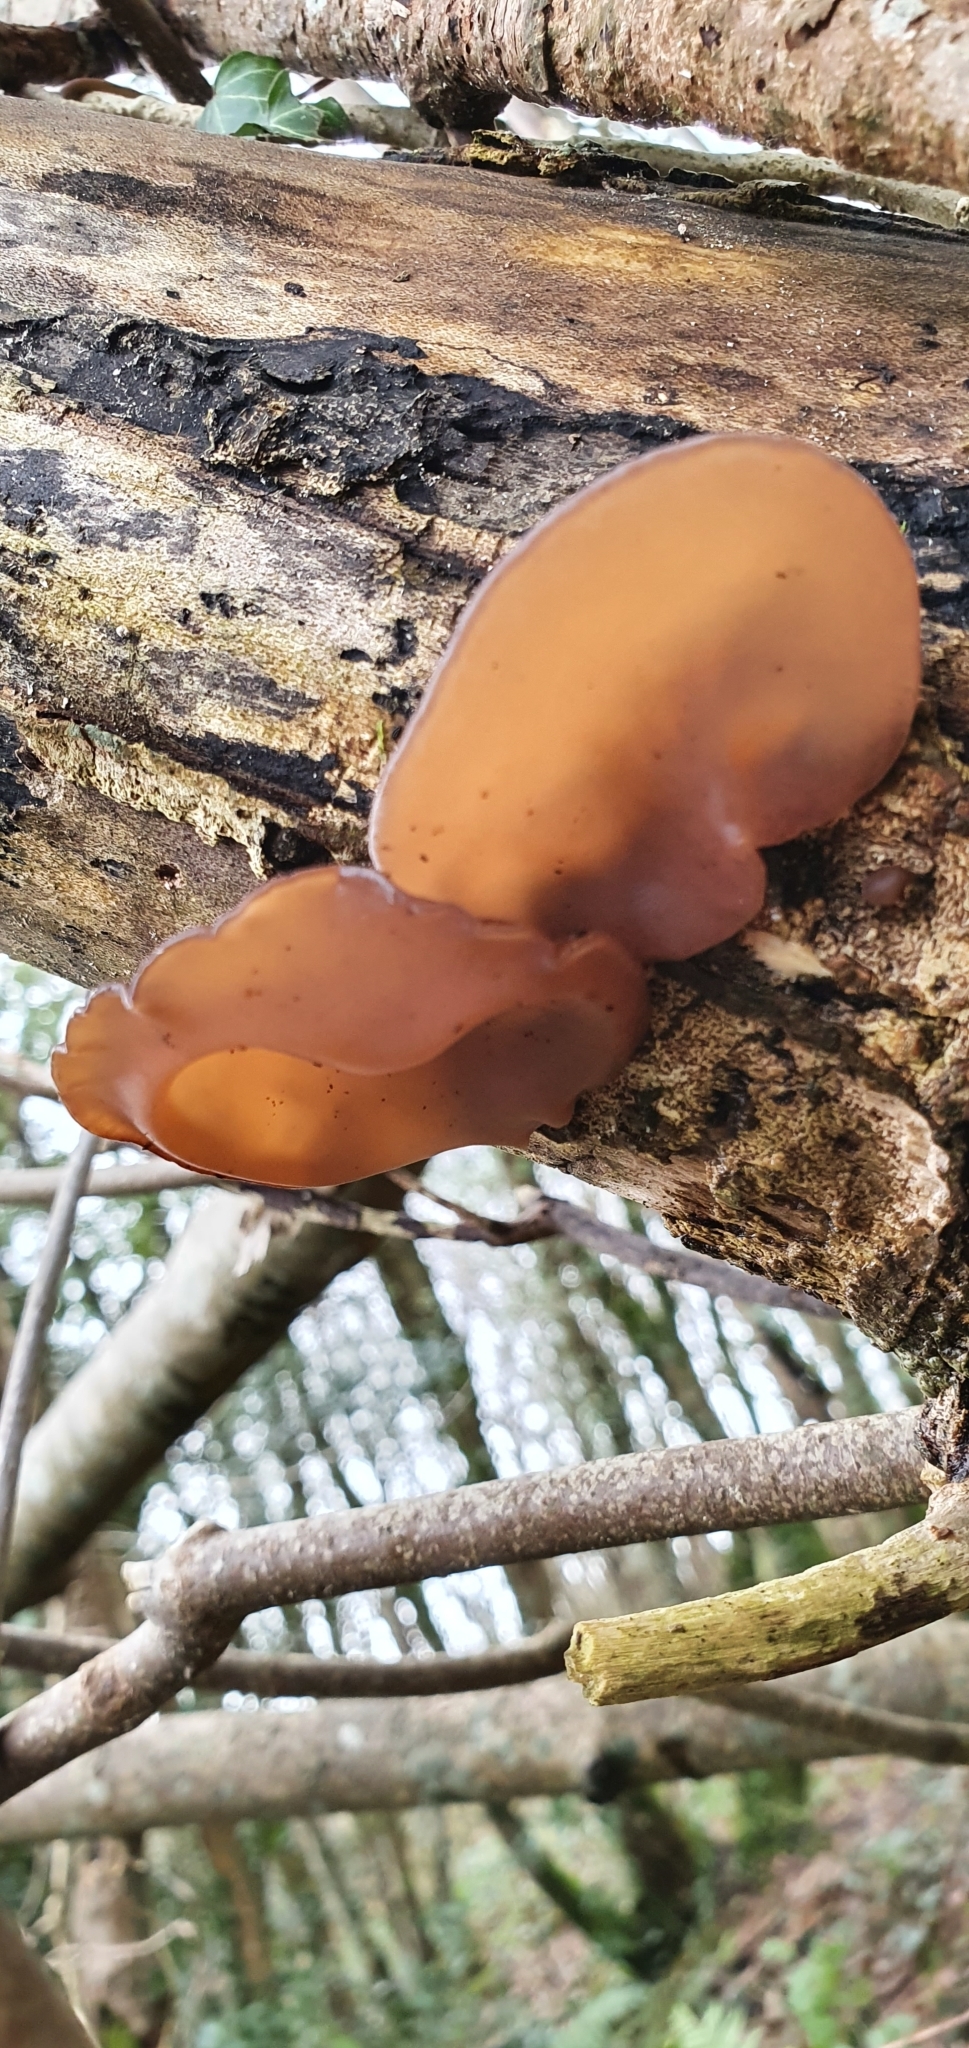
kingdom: Fungi
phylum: Basidiomycota
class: Agaricomycetes
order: Auriculariales
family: Auriculariaceae
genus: Auricularia
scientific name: Auricularia auricula-judae
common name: Jelly ear
